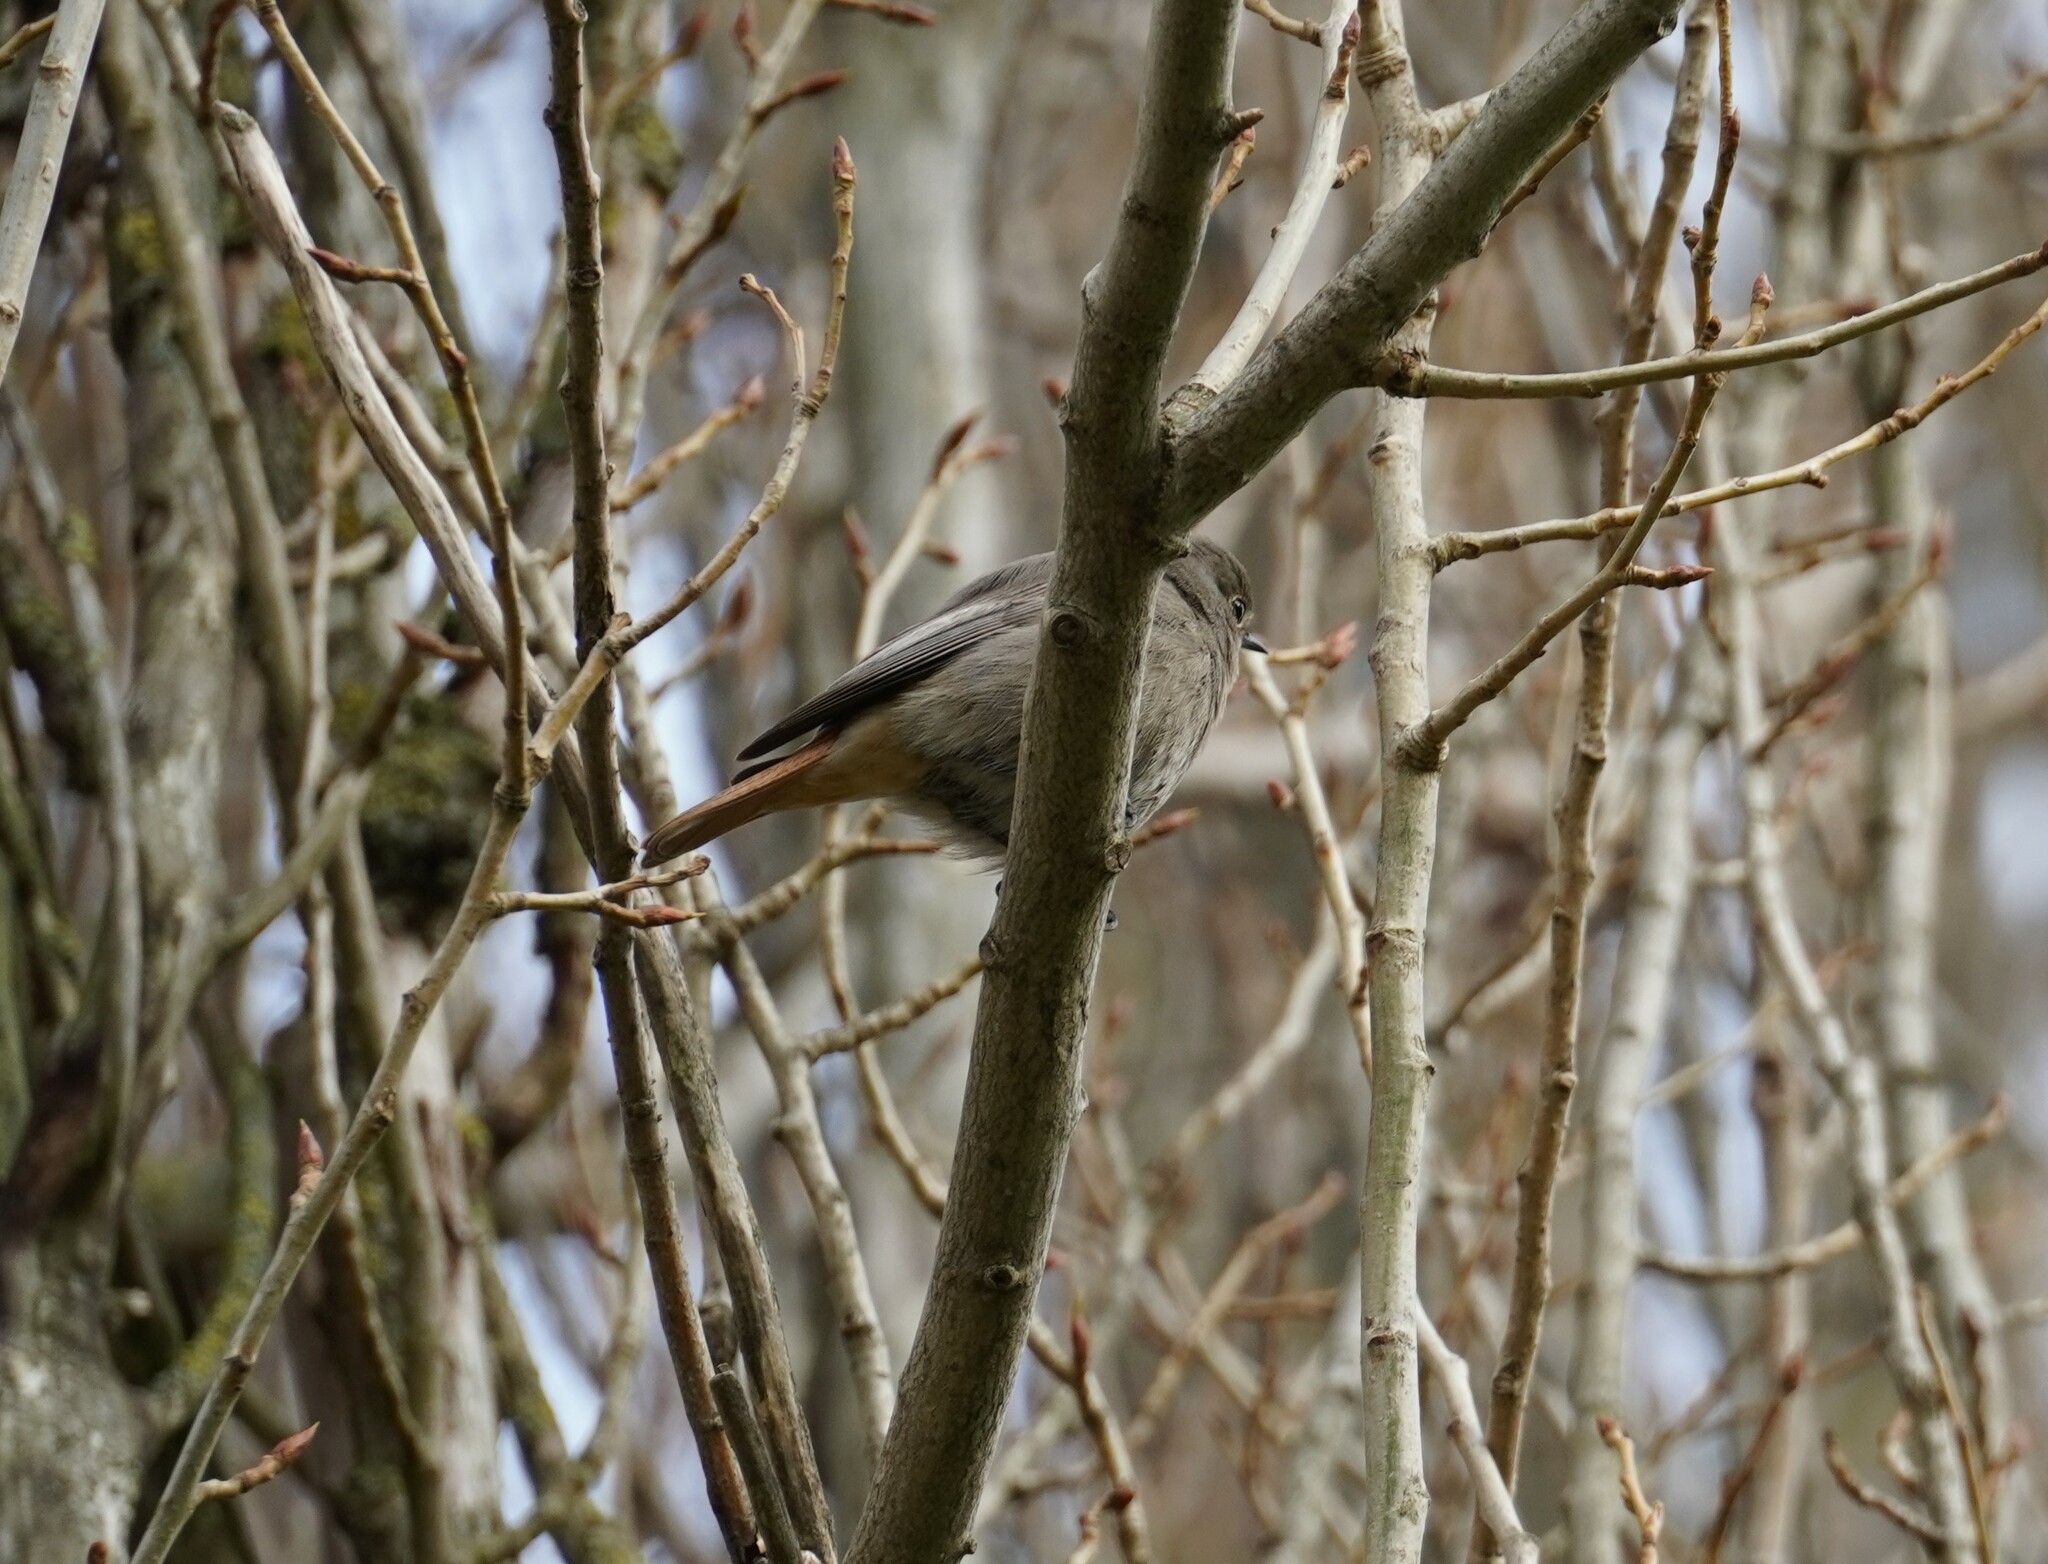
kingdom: Animalia
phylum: Chordata
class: Aves
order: Passeriformes
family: Muscicapidae
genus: Phoenicurus
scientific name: Phoenicurus ochruros
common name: Black redstart
